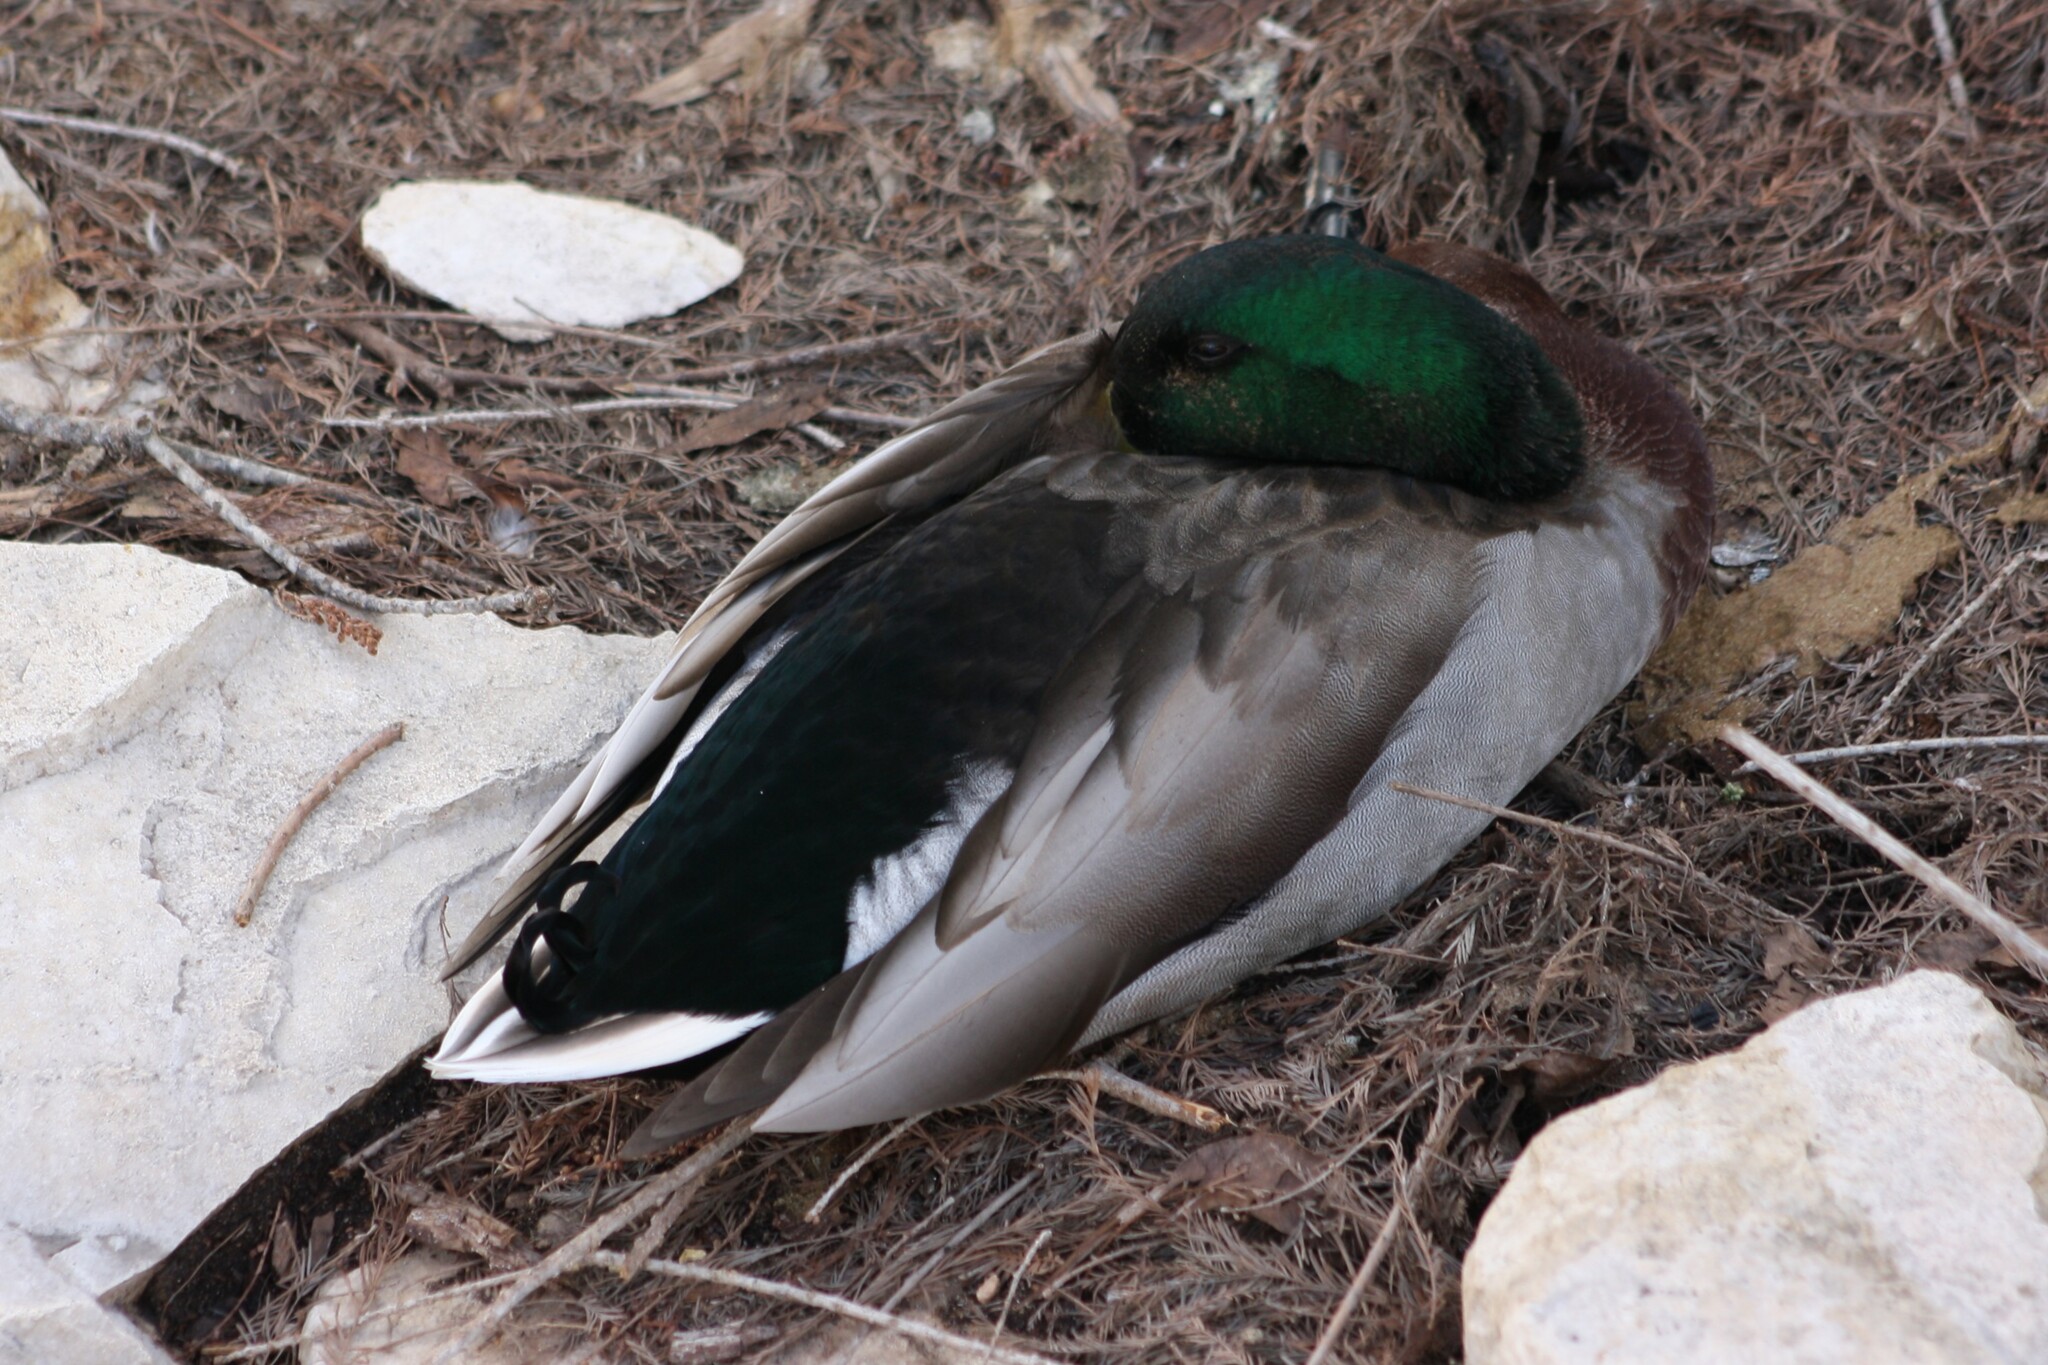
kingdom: Animalia
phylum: Chordata
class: Aves
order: Anseriformes
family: Anatidae
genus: Anas
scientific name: Anas platyrhynchos
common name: Mallard
